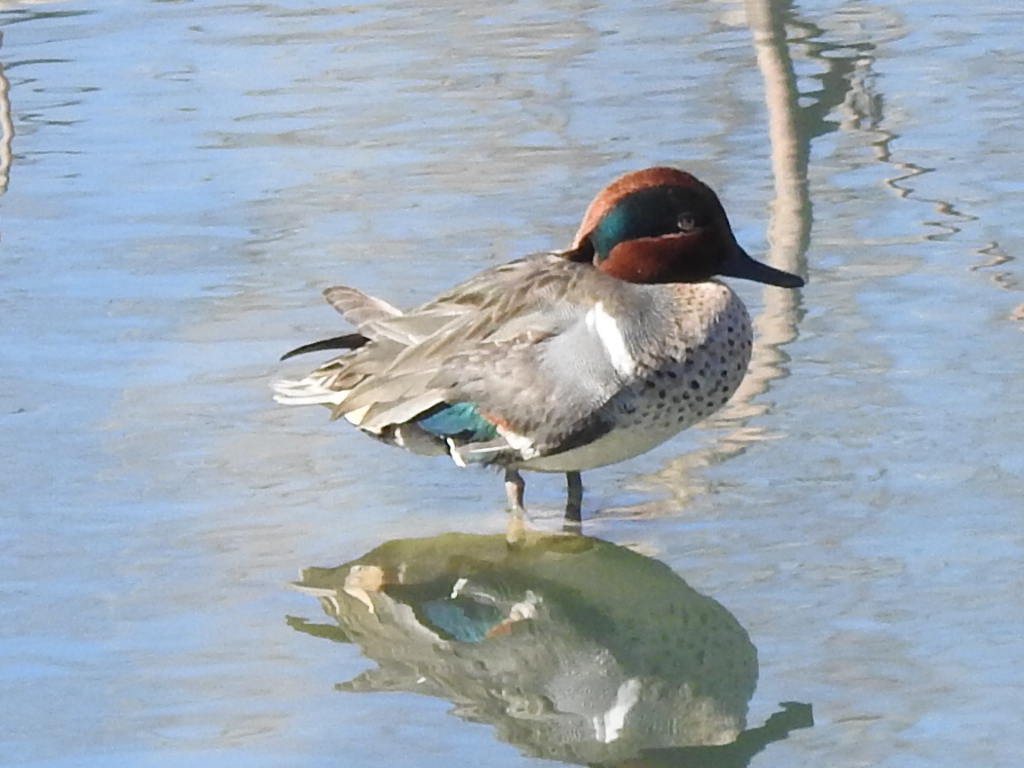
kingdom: Animalia
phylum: Chordata
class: Aves
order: Anseriformes
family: Anatidae
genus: Anas
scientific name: Anas carolinensis
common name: Green-winged teal
